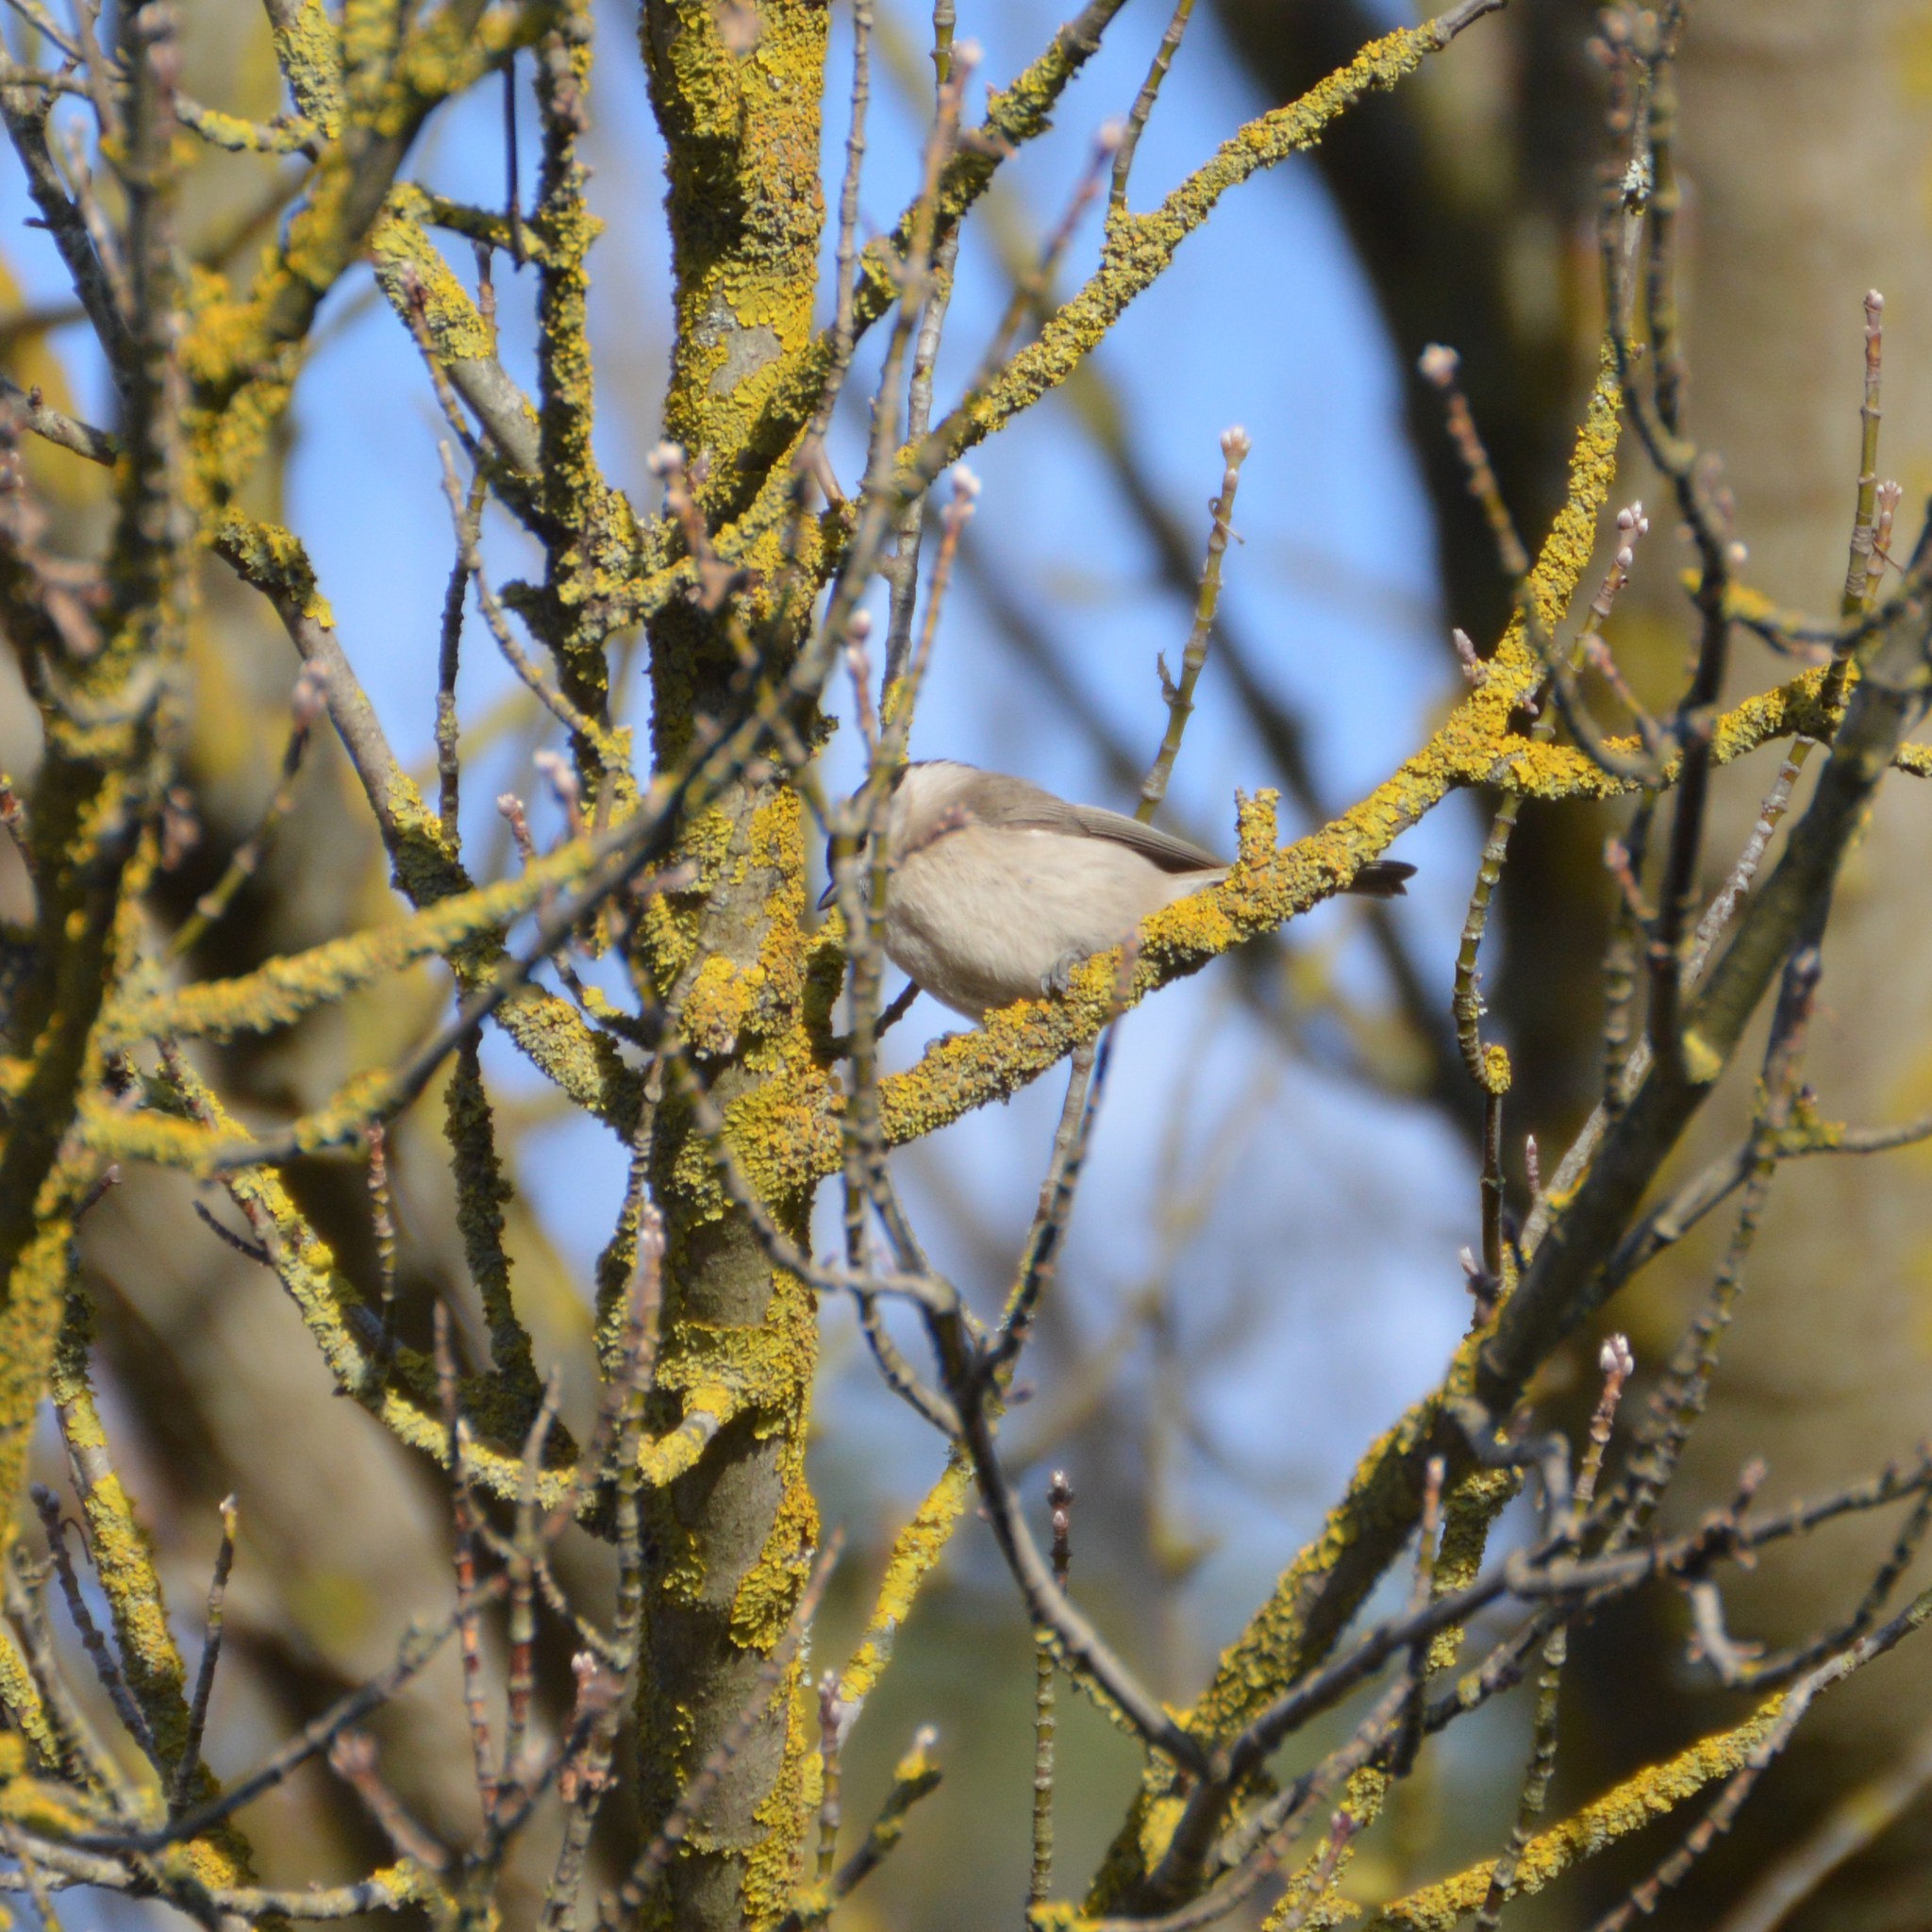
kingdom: Animalia
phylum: Chordata
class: Aves
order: Passeriformes
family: Paridae
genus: Poecile
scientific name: Poecile palustris
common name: Marsh tit
